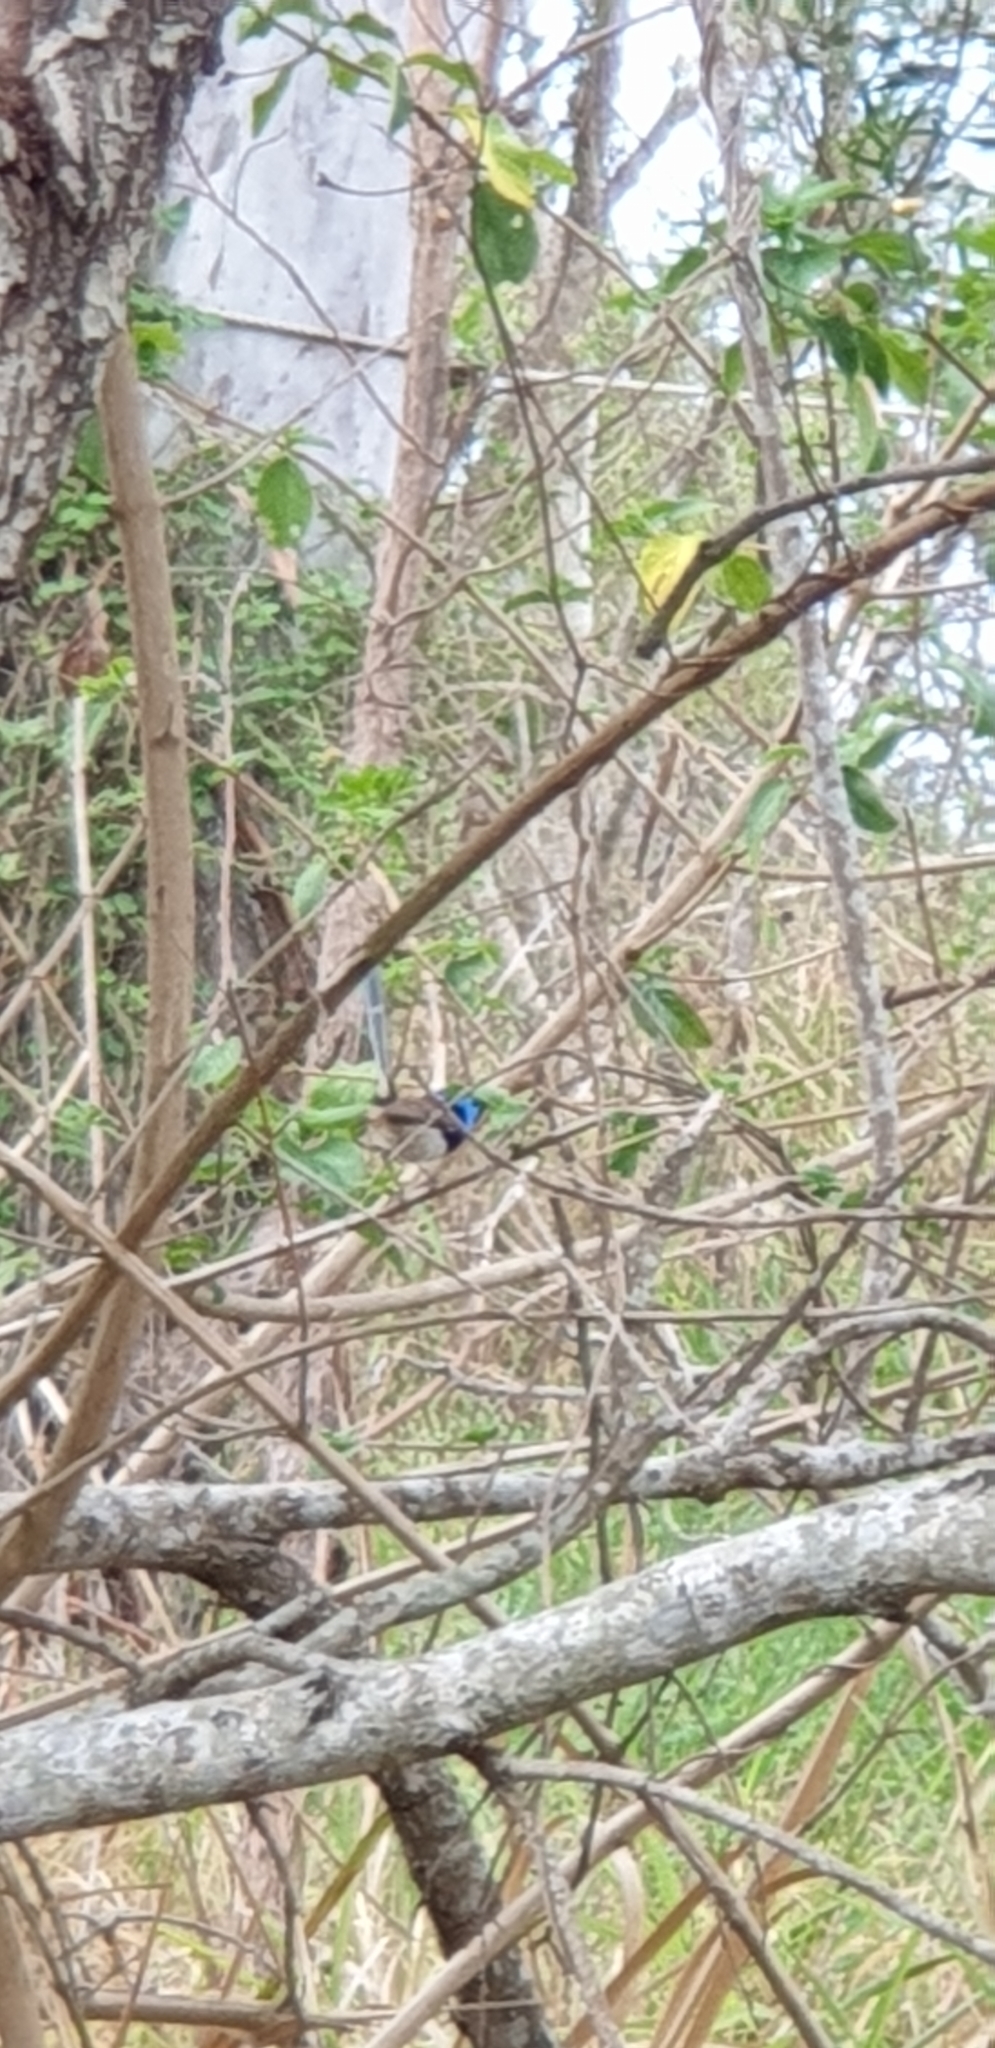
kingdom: Animalia
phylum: Chordata
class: Aves
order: Passeriformes
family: Maluridae
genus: Malurus
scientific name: Malurus lamberti
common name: Variegated fairywren
